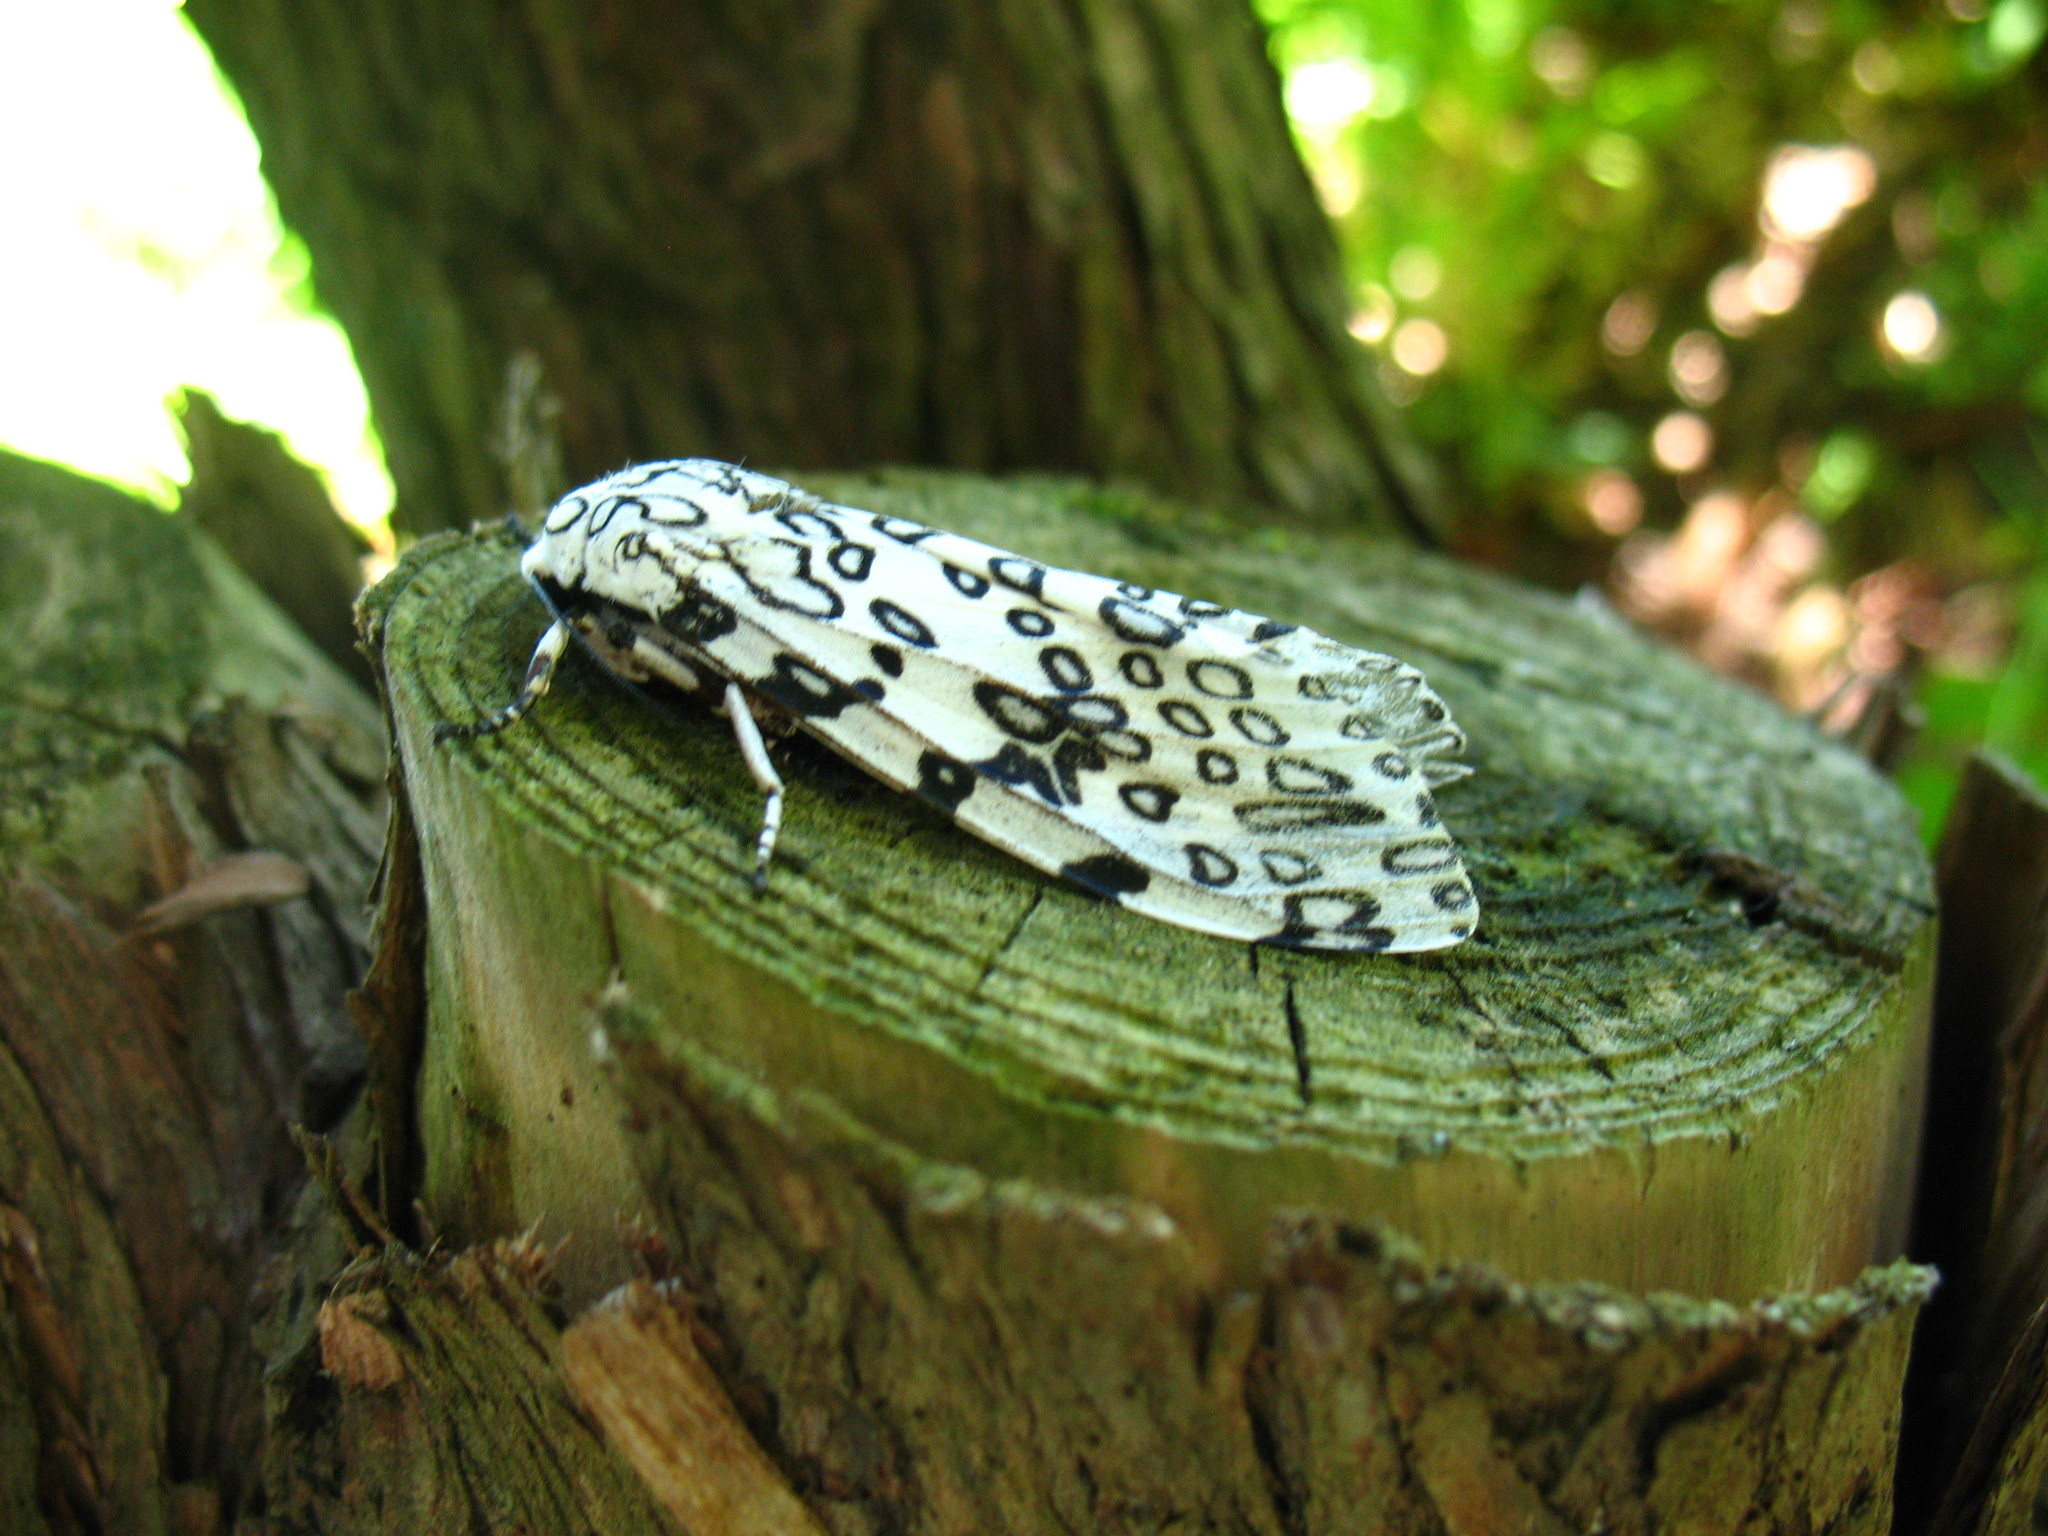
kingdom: Animalia
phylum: Arthropoda
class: Insecta
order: Lepidoptera
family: Erebidae
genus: Hypercompe
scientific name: Hypercompe scribonia
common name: Giant leopard moth
